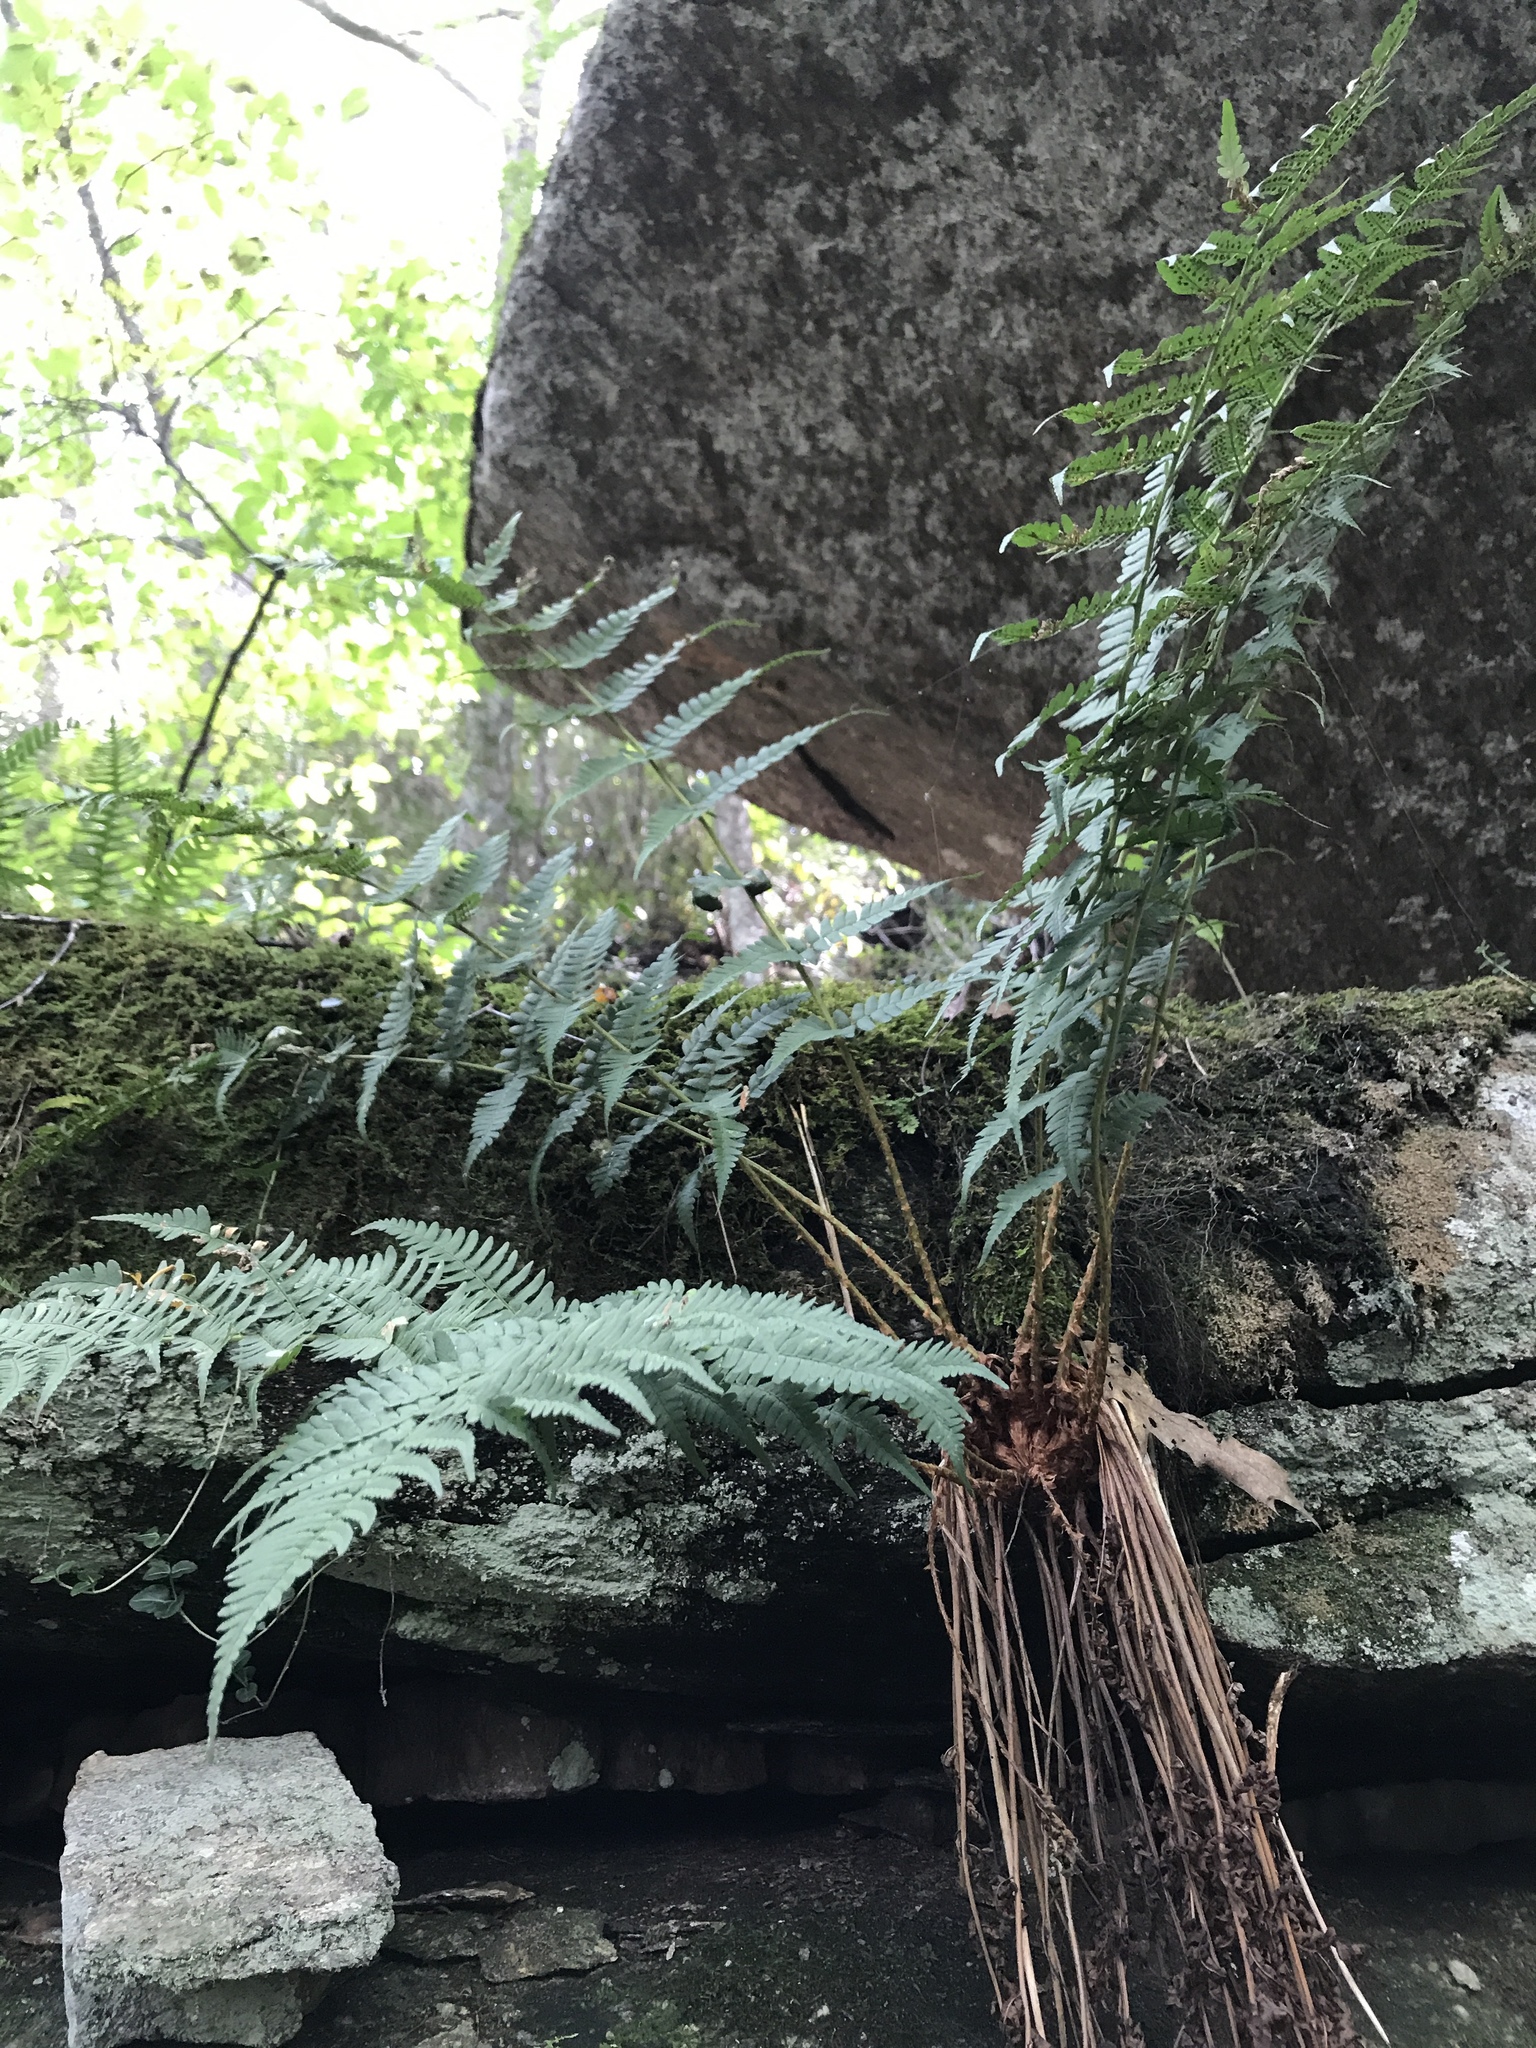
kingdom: Plantae
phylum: Tracheophyta
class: Polypodiopsida
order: Polypodiales
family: Dryopteridaceae
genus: Dryopteris
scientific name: Dryopteris marginalis
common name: Marginal wood fern
